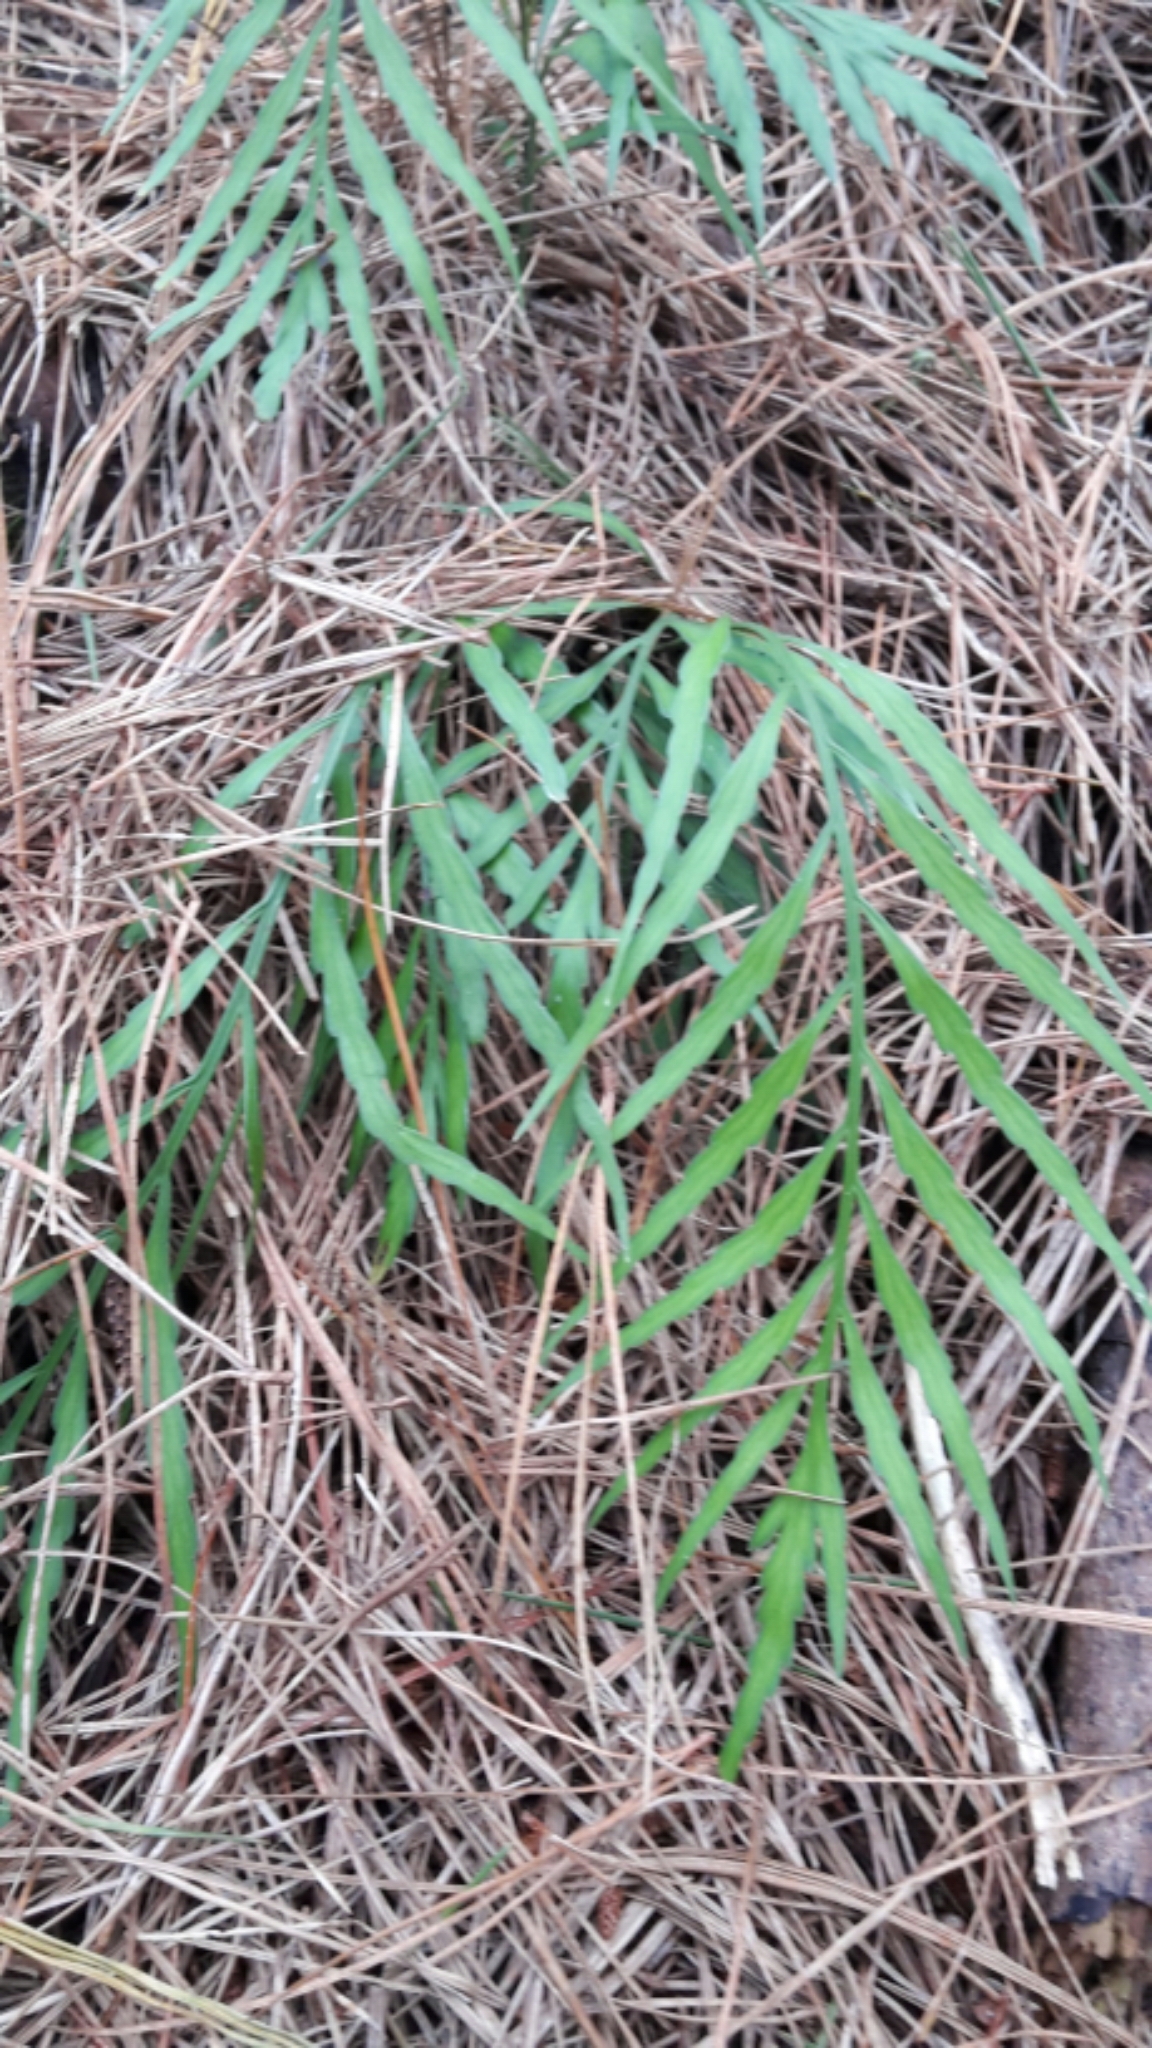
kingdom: Plantae
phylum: Tracheophyta
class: Polypodiopsida
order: Polypodiales
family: Aspleniaceae
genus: Asplenium
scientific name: Asplenium flaccidum
